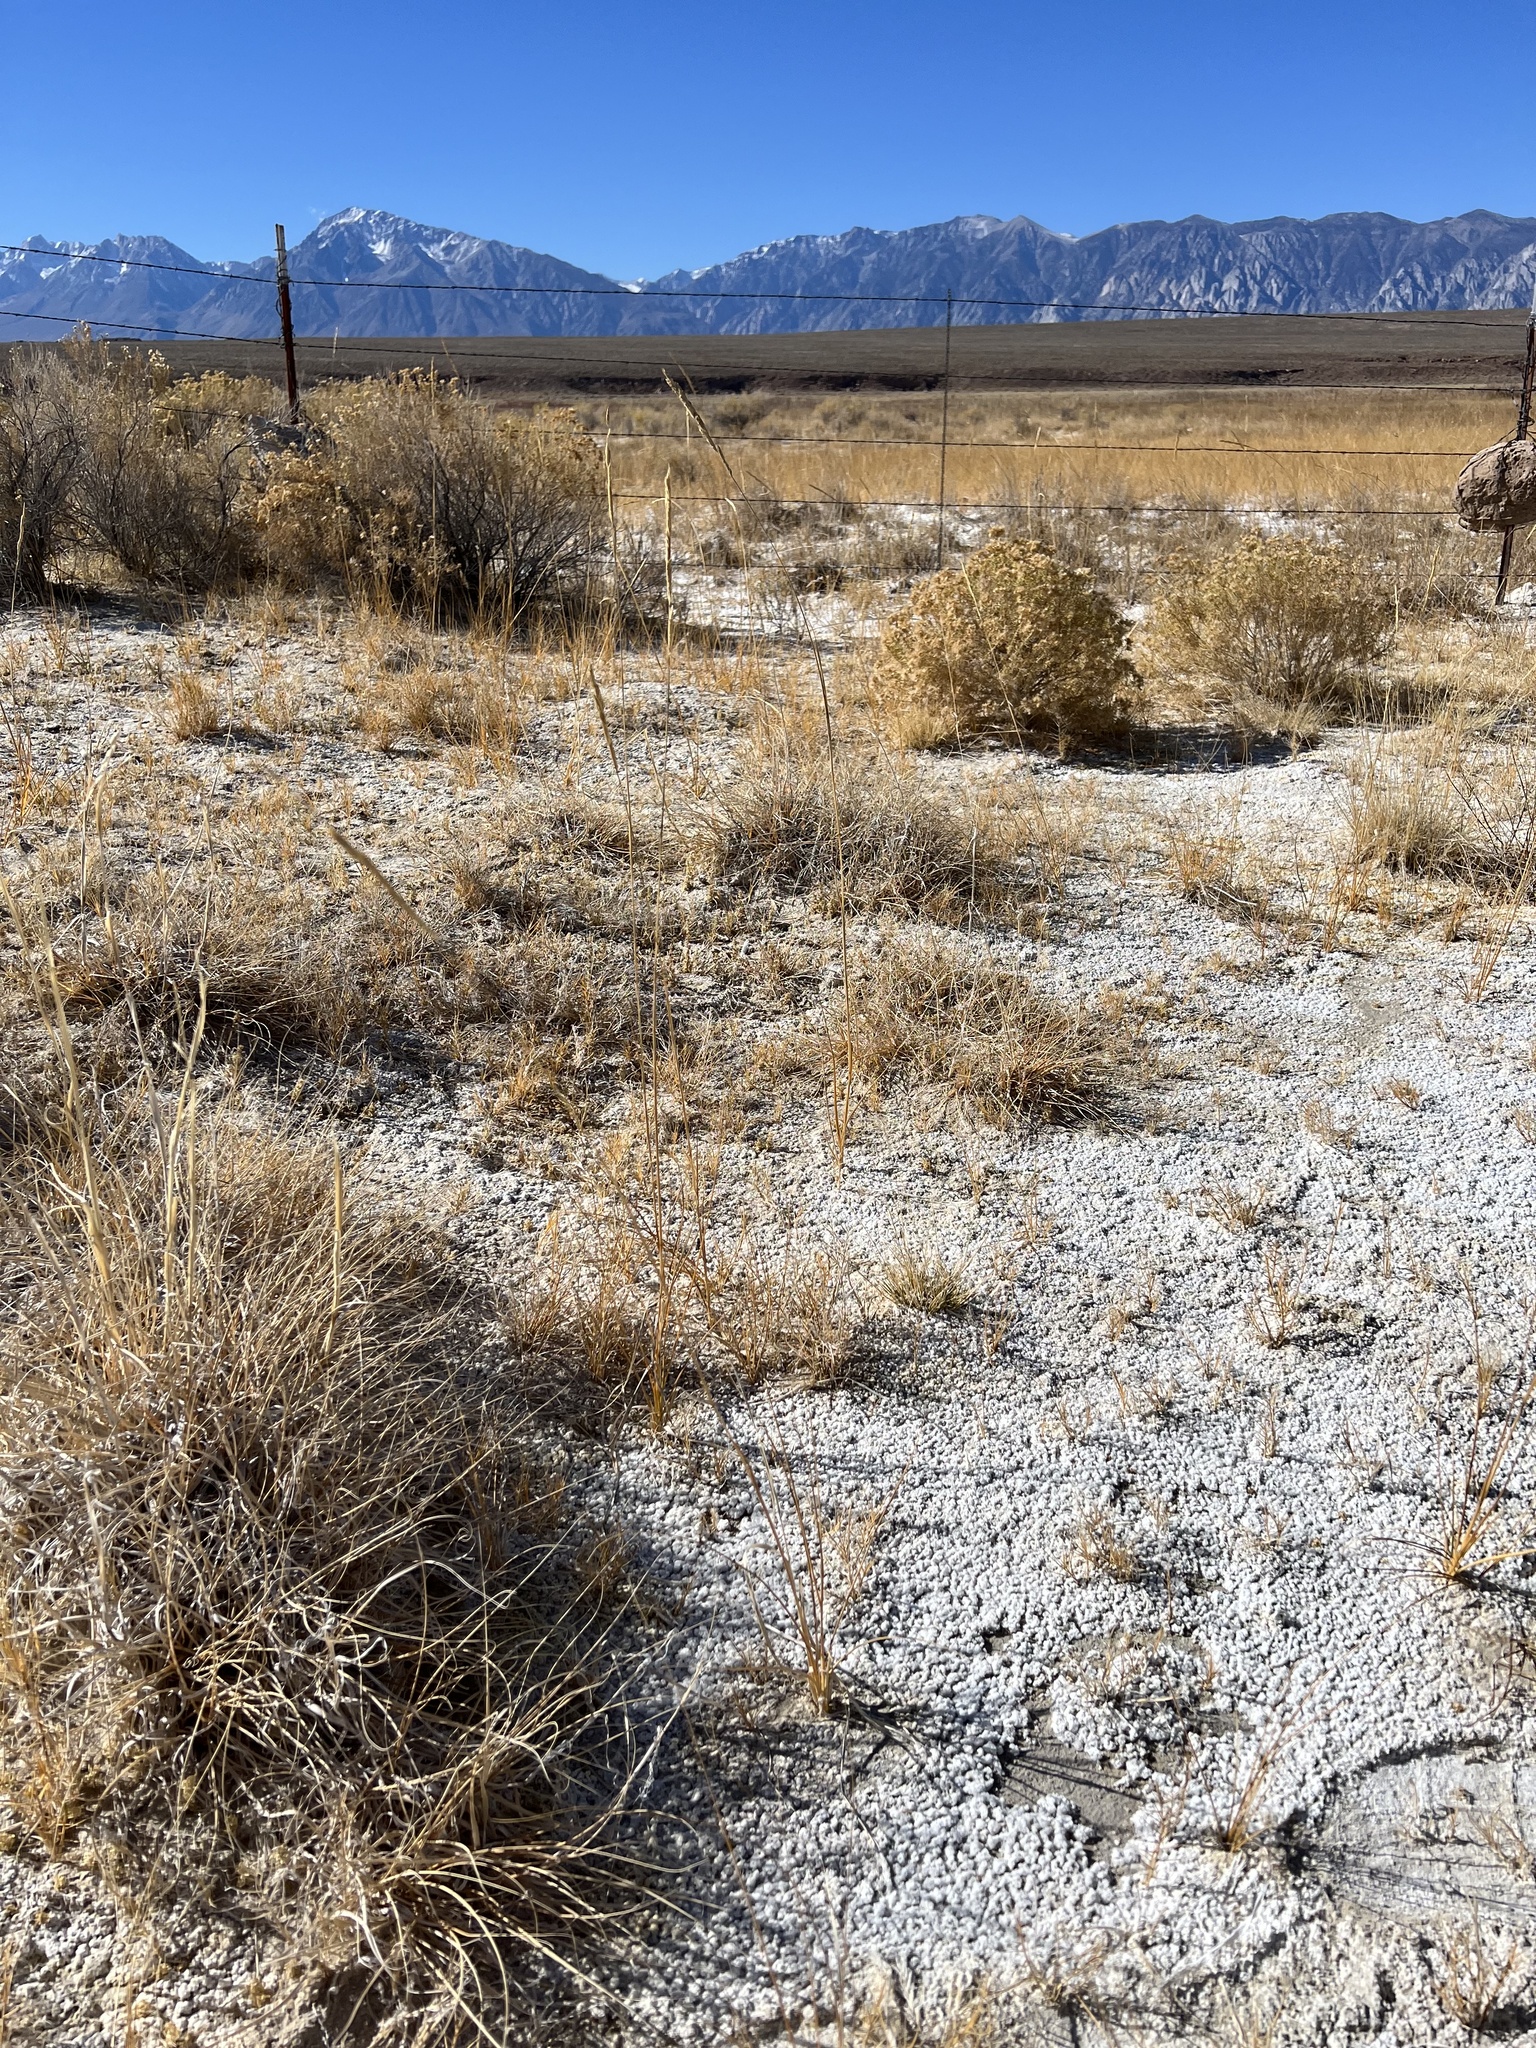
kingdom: Plantae
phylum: Tracheophyta
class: Liliopsida
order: Poales
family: Poaceae
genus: Sporobolus
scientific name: Sporobolus hookerianus
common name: Alkali cordgrass
